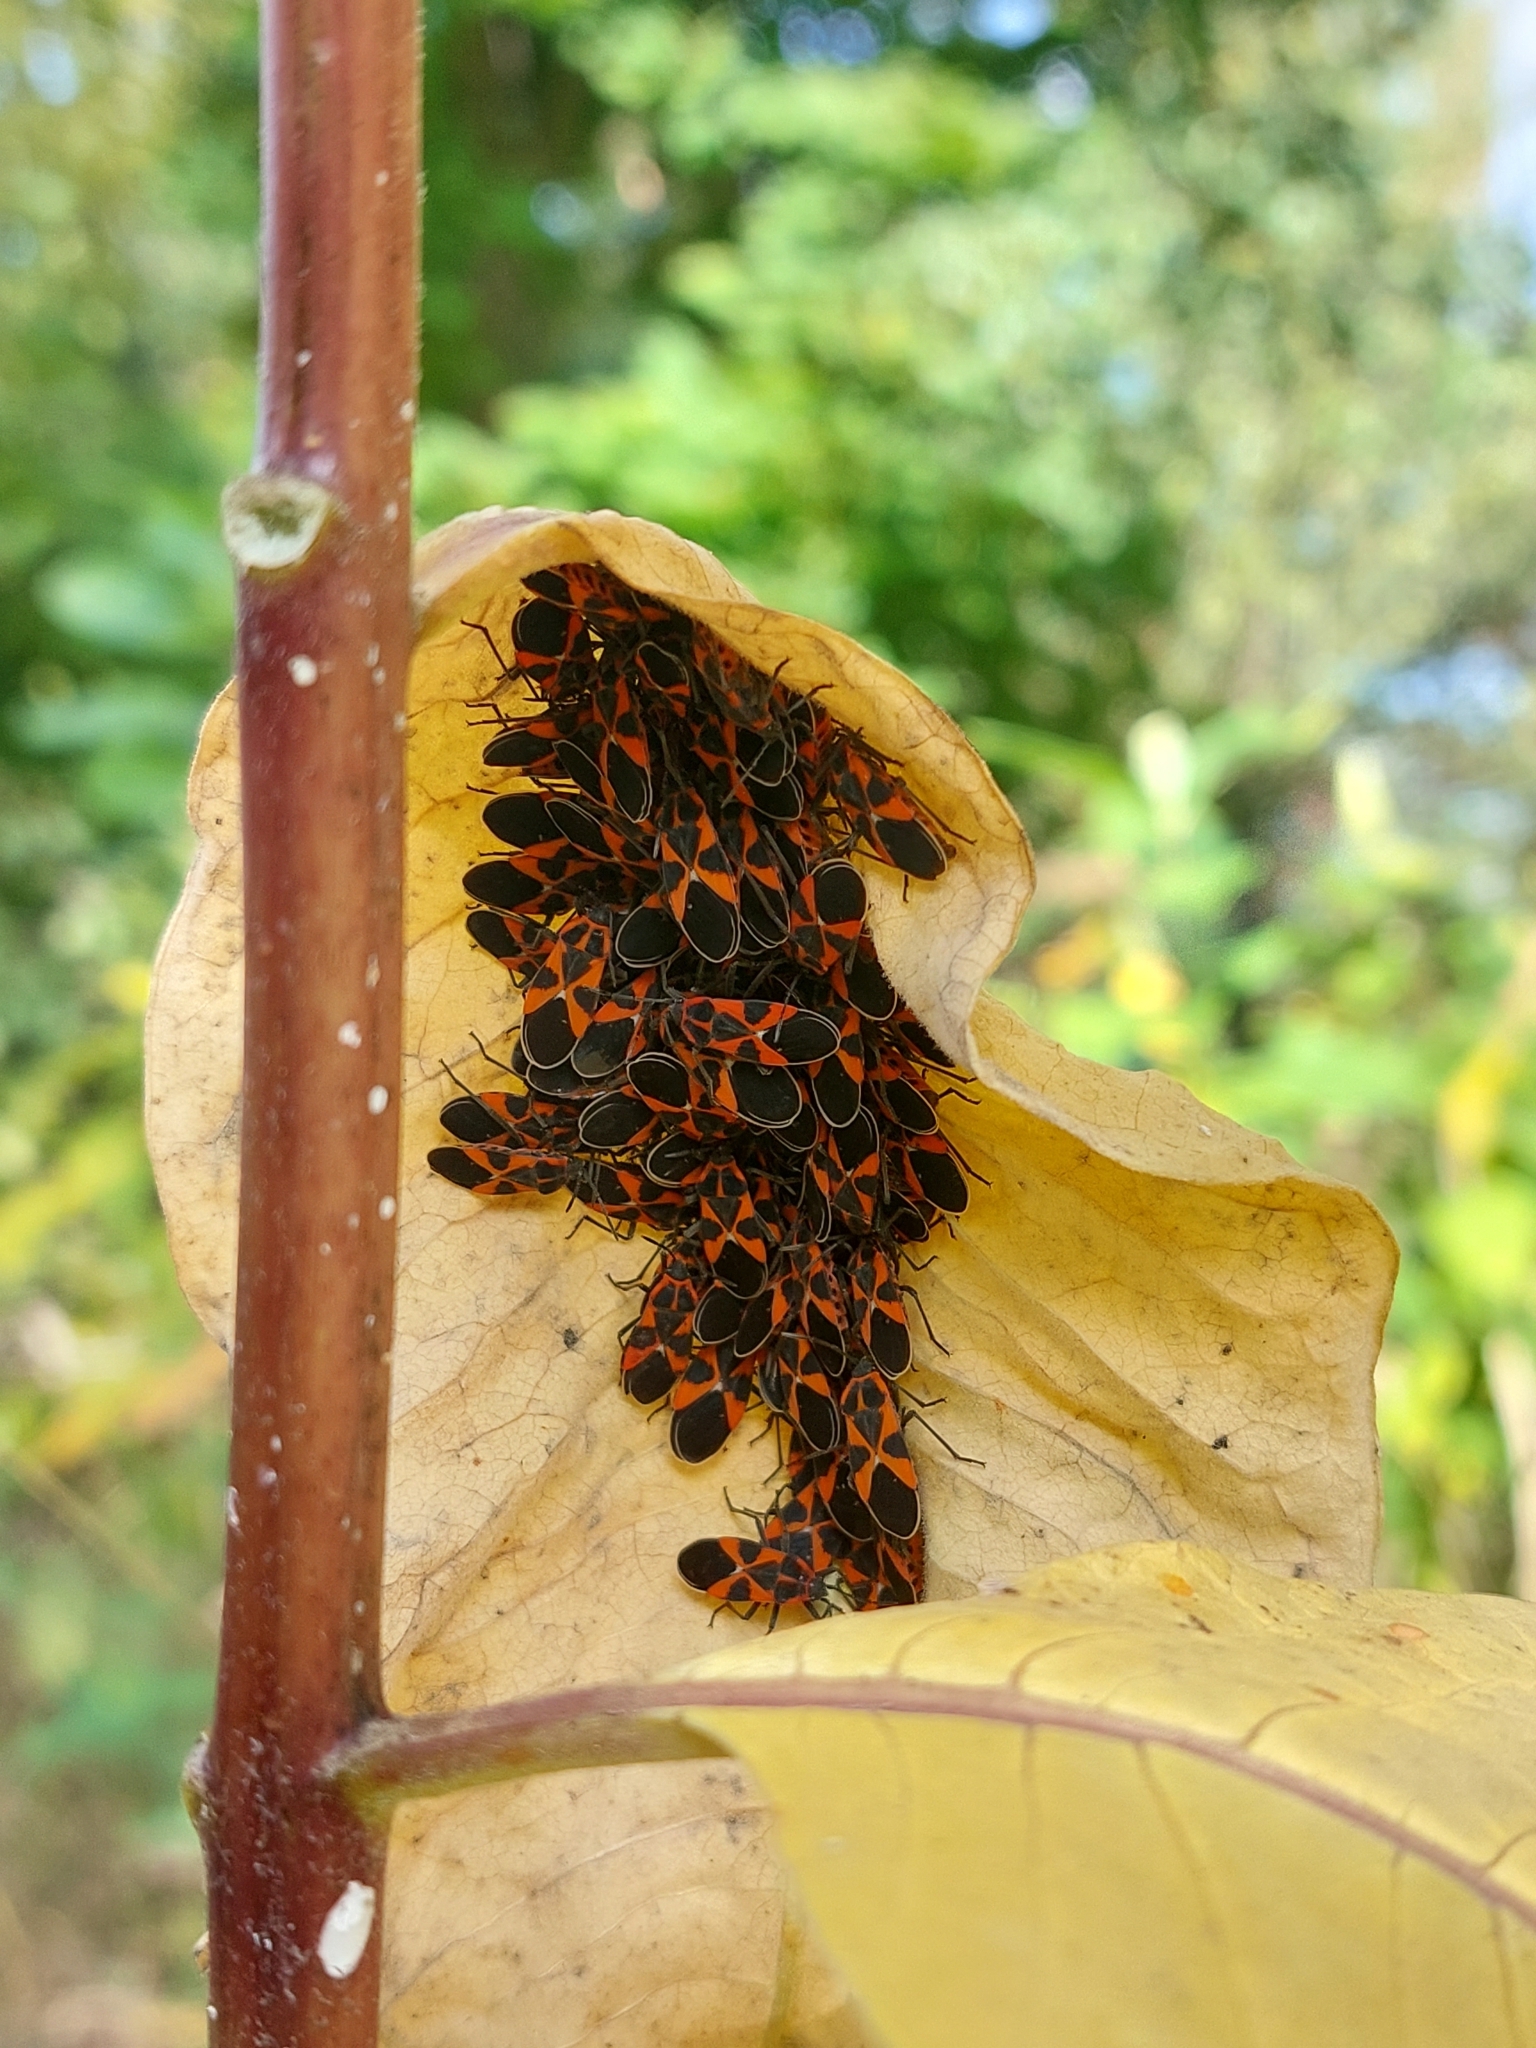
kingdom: Animalia
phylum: Arthropoda
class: Insecta
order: Hemiptera
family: Lygaeidae
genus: Tropidothorax
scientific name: Tropidothorax leucopterus
